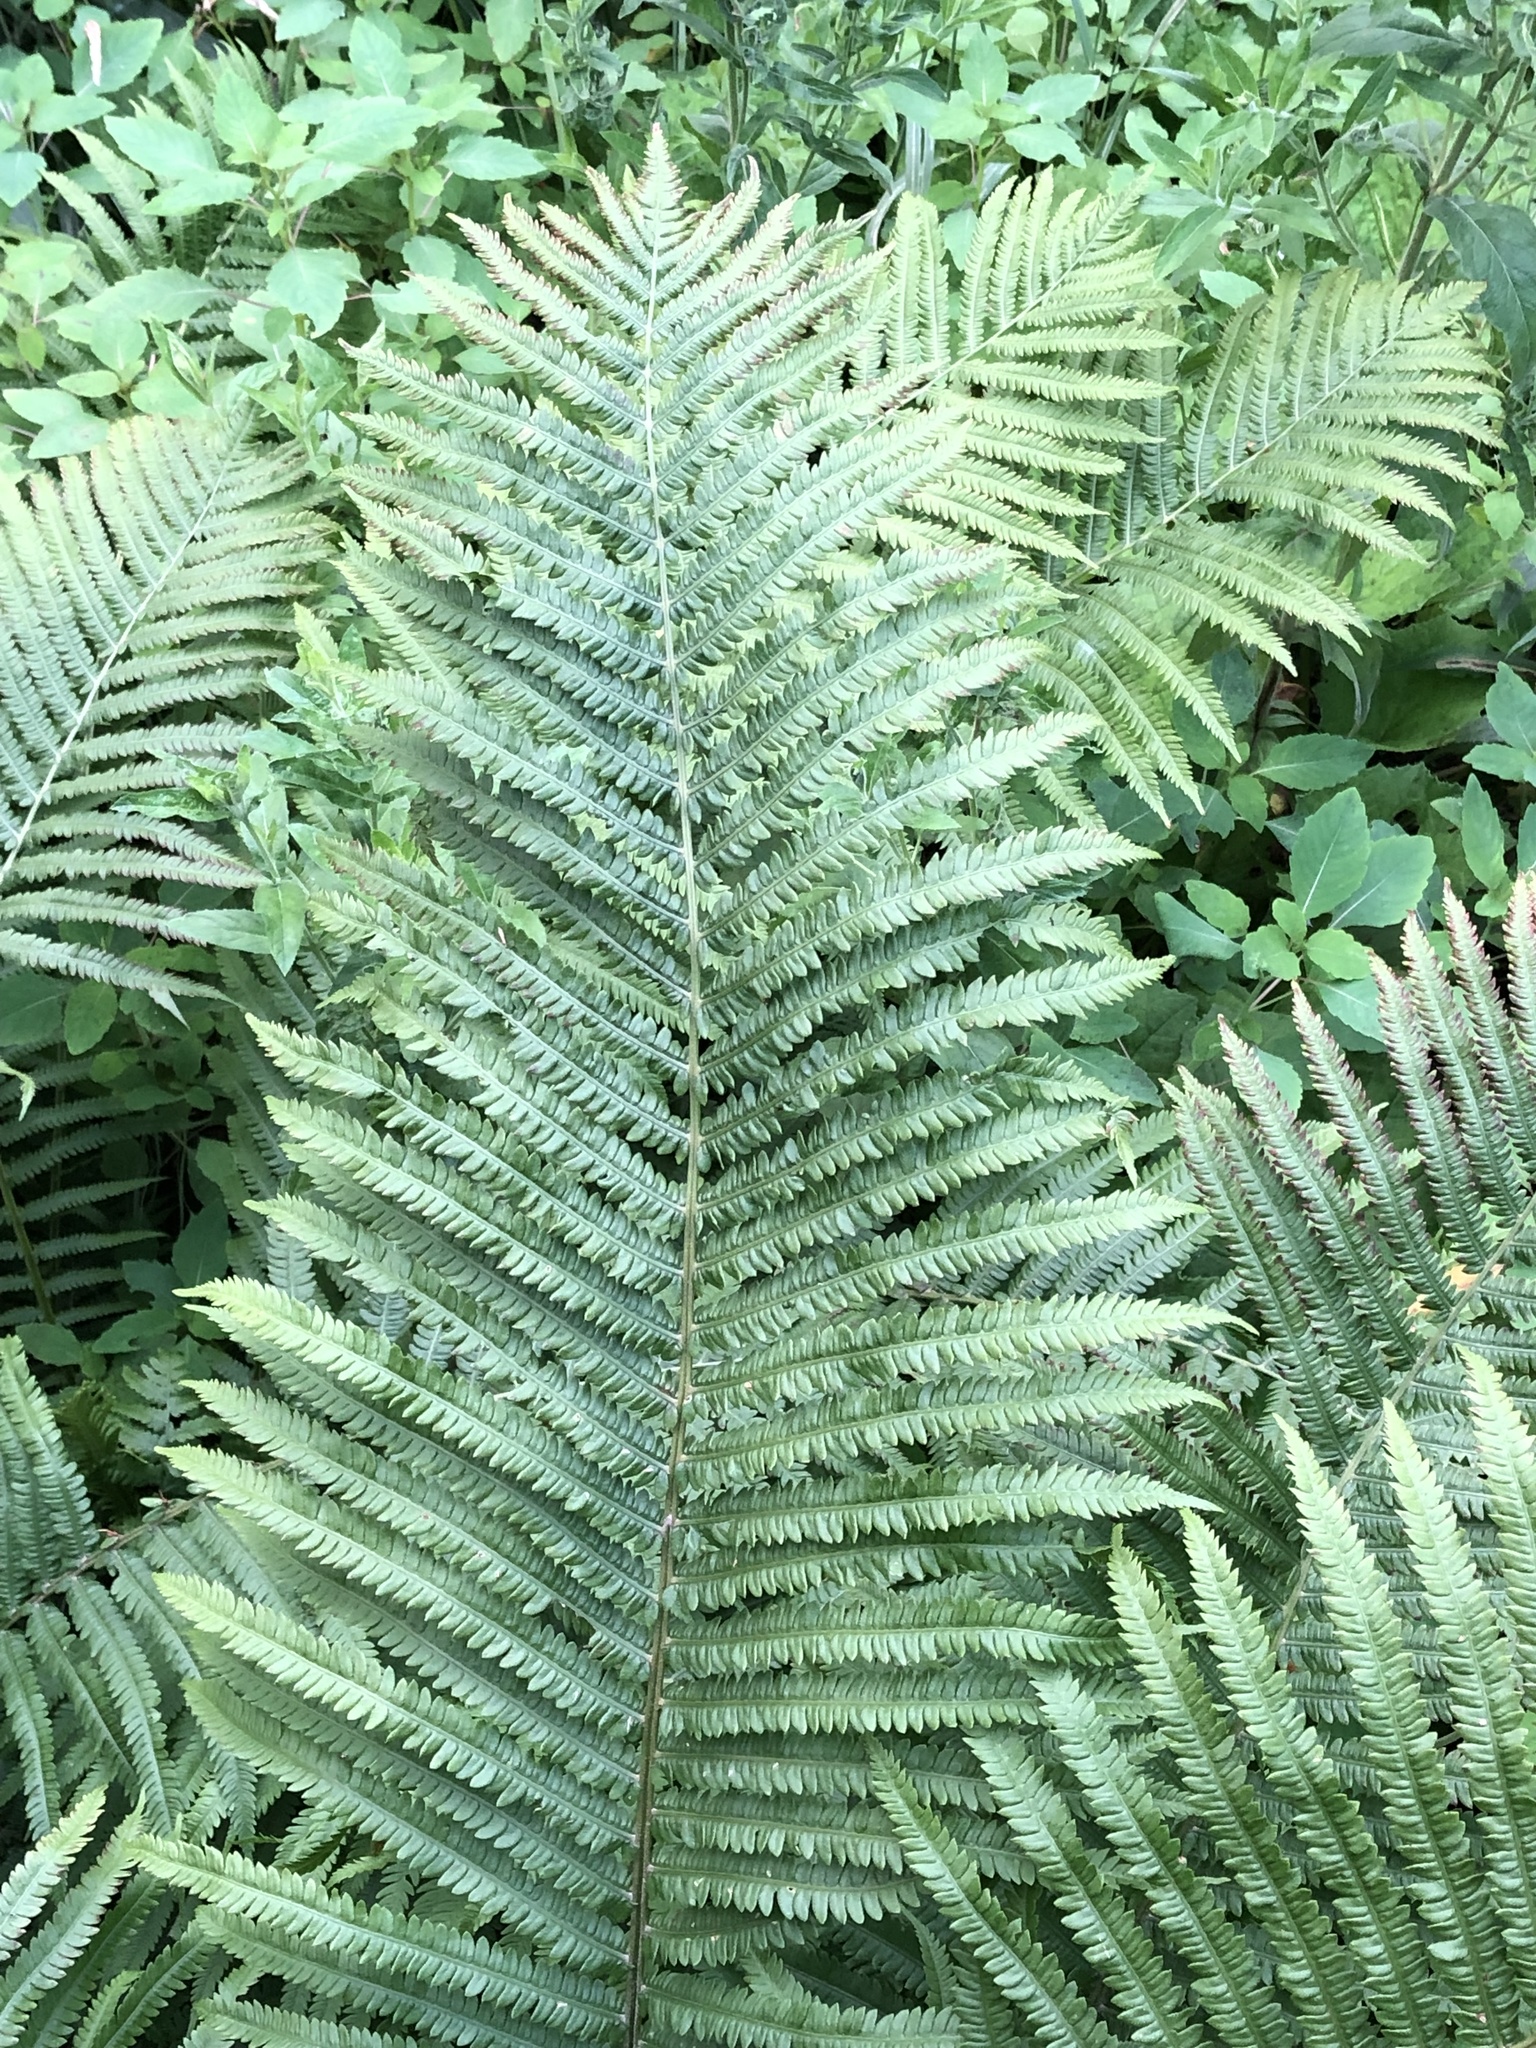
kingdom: Plantae
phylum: Tracheophyta
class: Polypodiopsida
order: Polypodiales
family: Onocleaceae
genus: Matteuccia
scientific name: Matteuccia struthiopteris
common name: Ostrich fern
